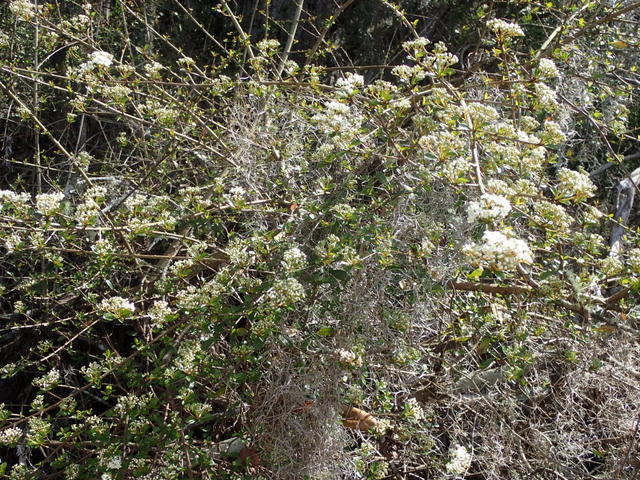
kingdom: Plantae
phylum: Tracheophyta
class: Magnoliopsida
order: Dipsacales
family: Viburnaceae
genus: Viburnum
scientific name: Viburnum obovatum
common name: Walter's viburnum
